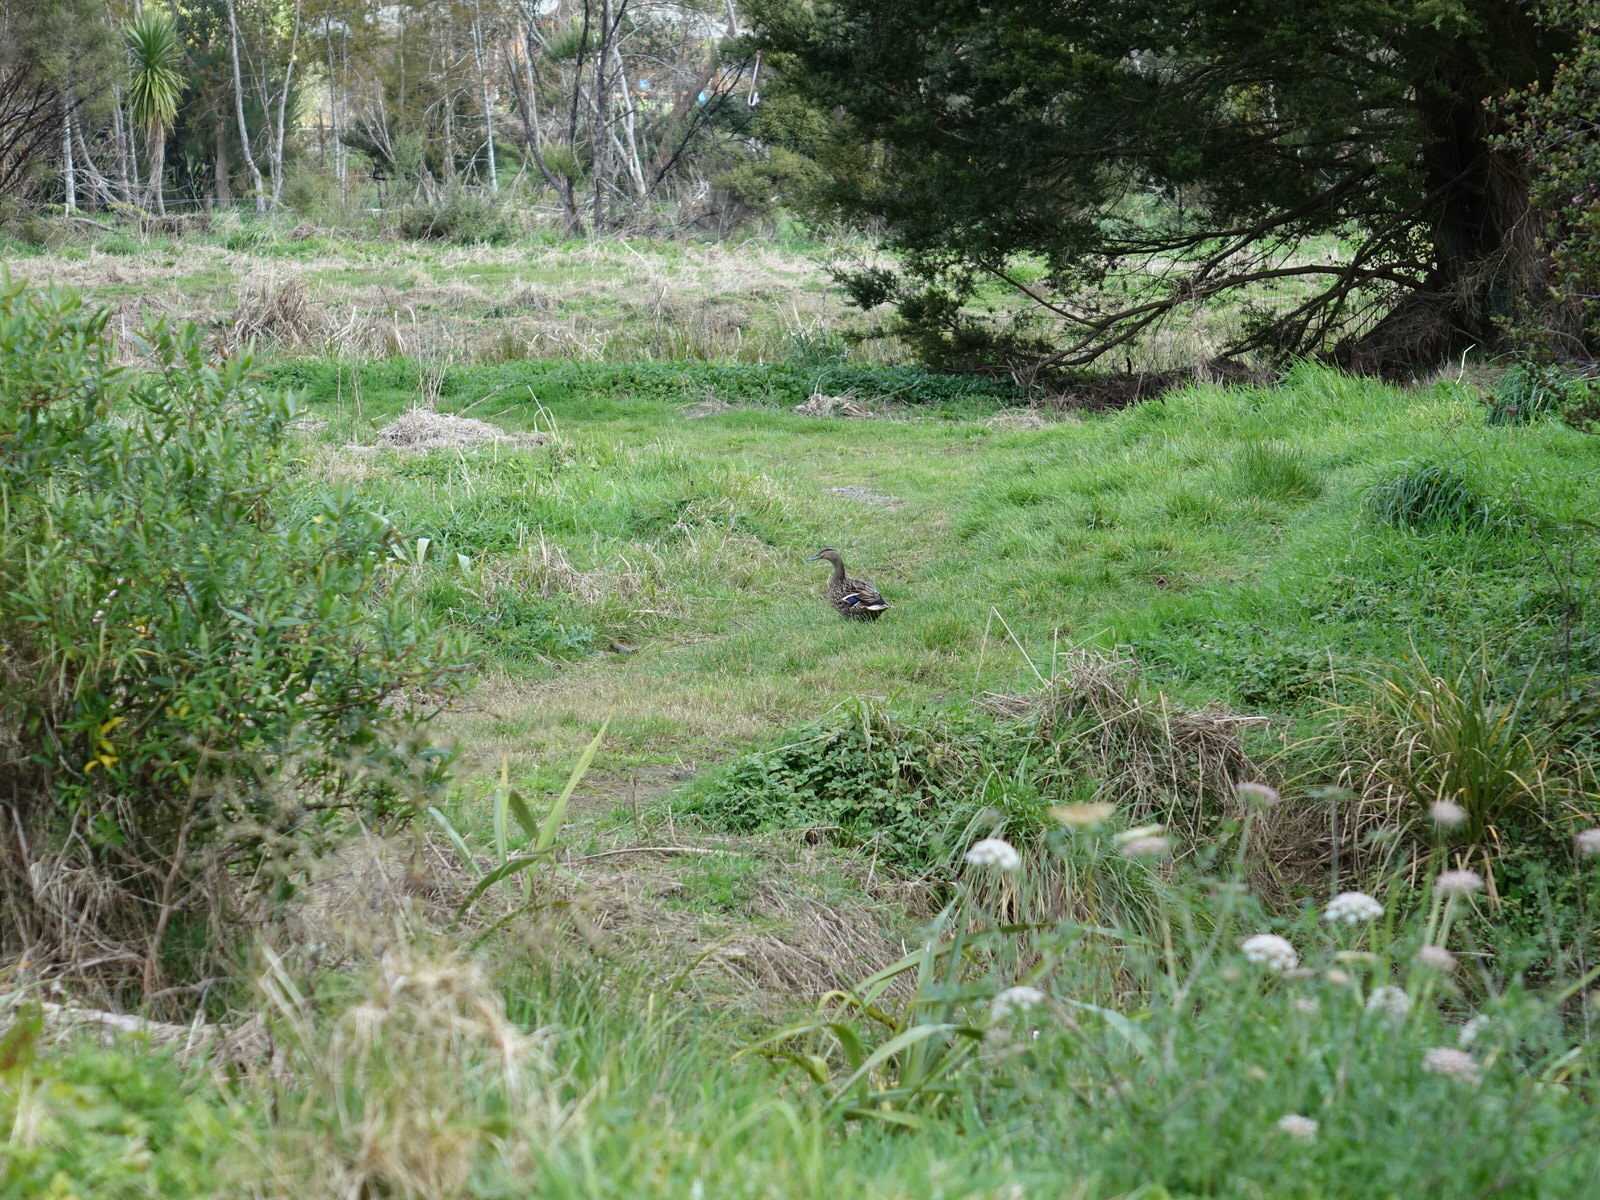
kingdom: Animalia
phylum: Chordata
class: Aves
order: Anseriformes
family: Anatidae
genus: Anas
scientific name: Anas platyrhynchos
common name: Mallard
